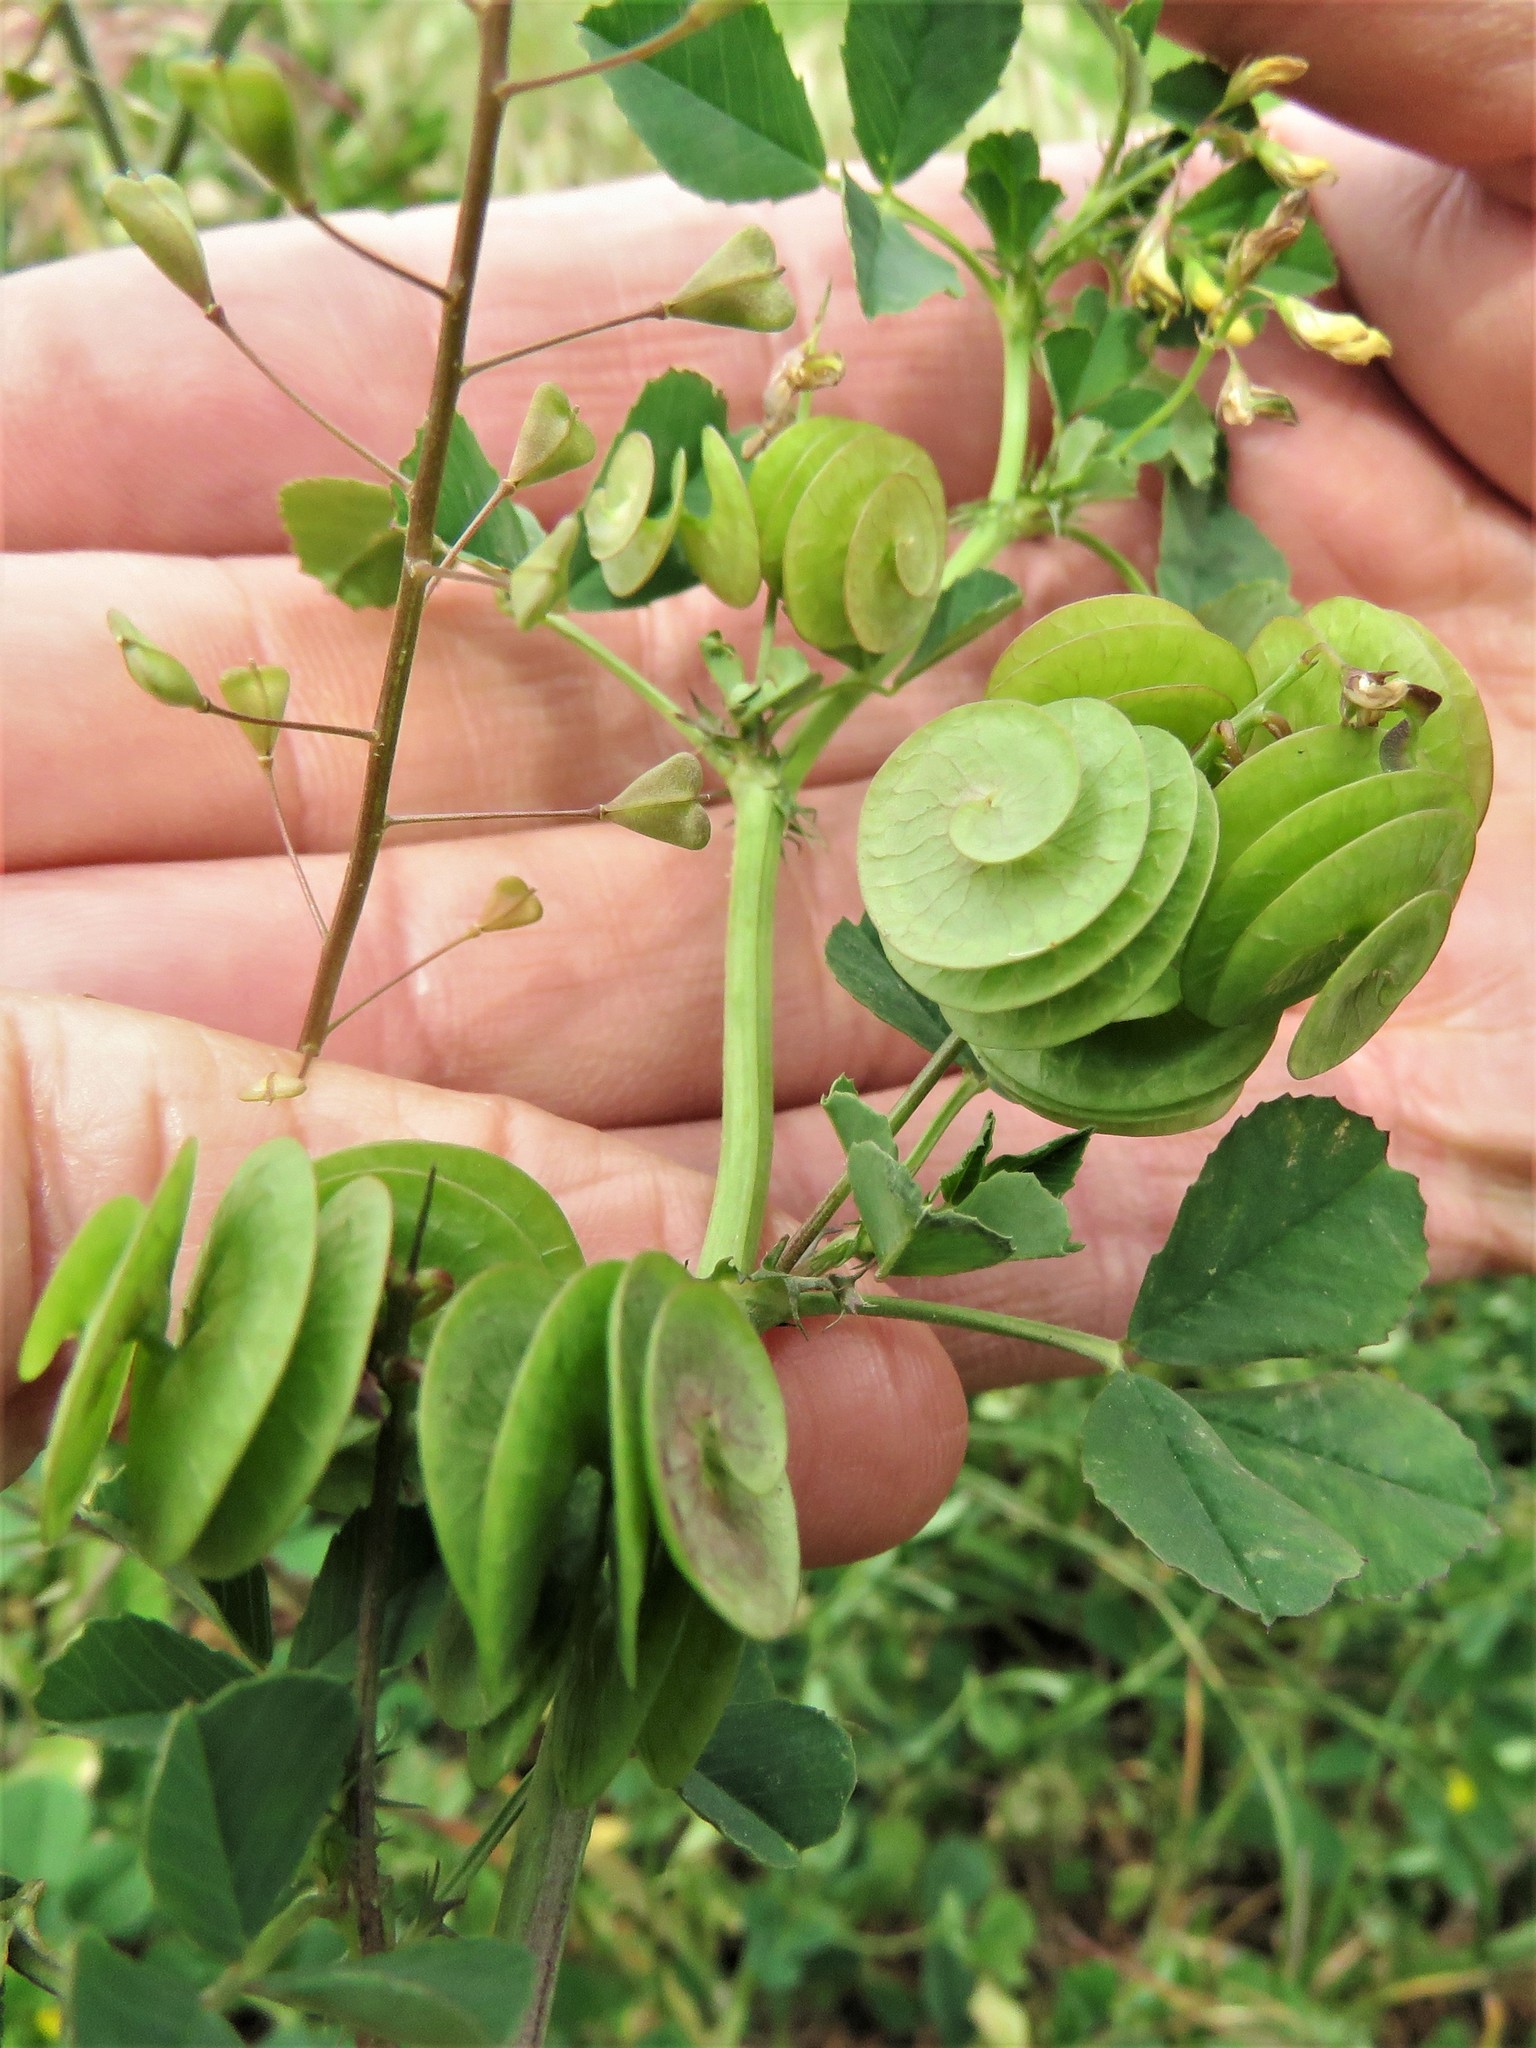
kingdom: Plantae
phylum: Tracheophyta
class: Magnoliopsida
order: Fabales
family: Fabaceae
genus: Medicago
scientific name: Medicago orbicularis
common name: Button medick
